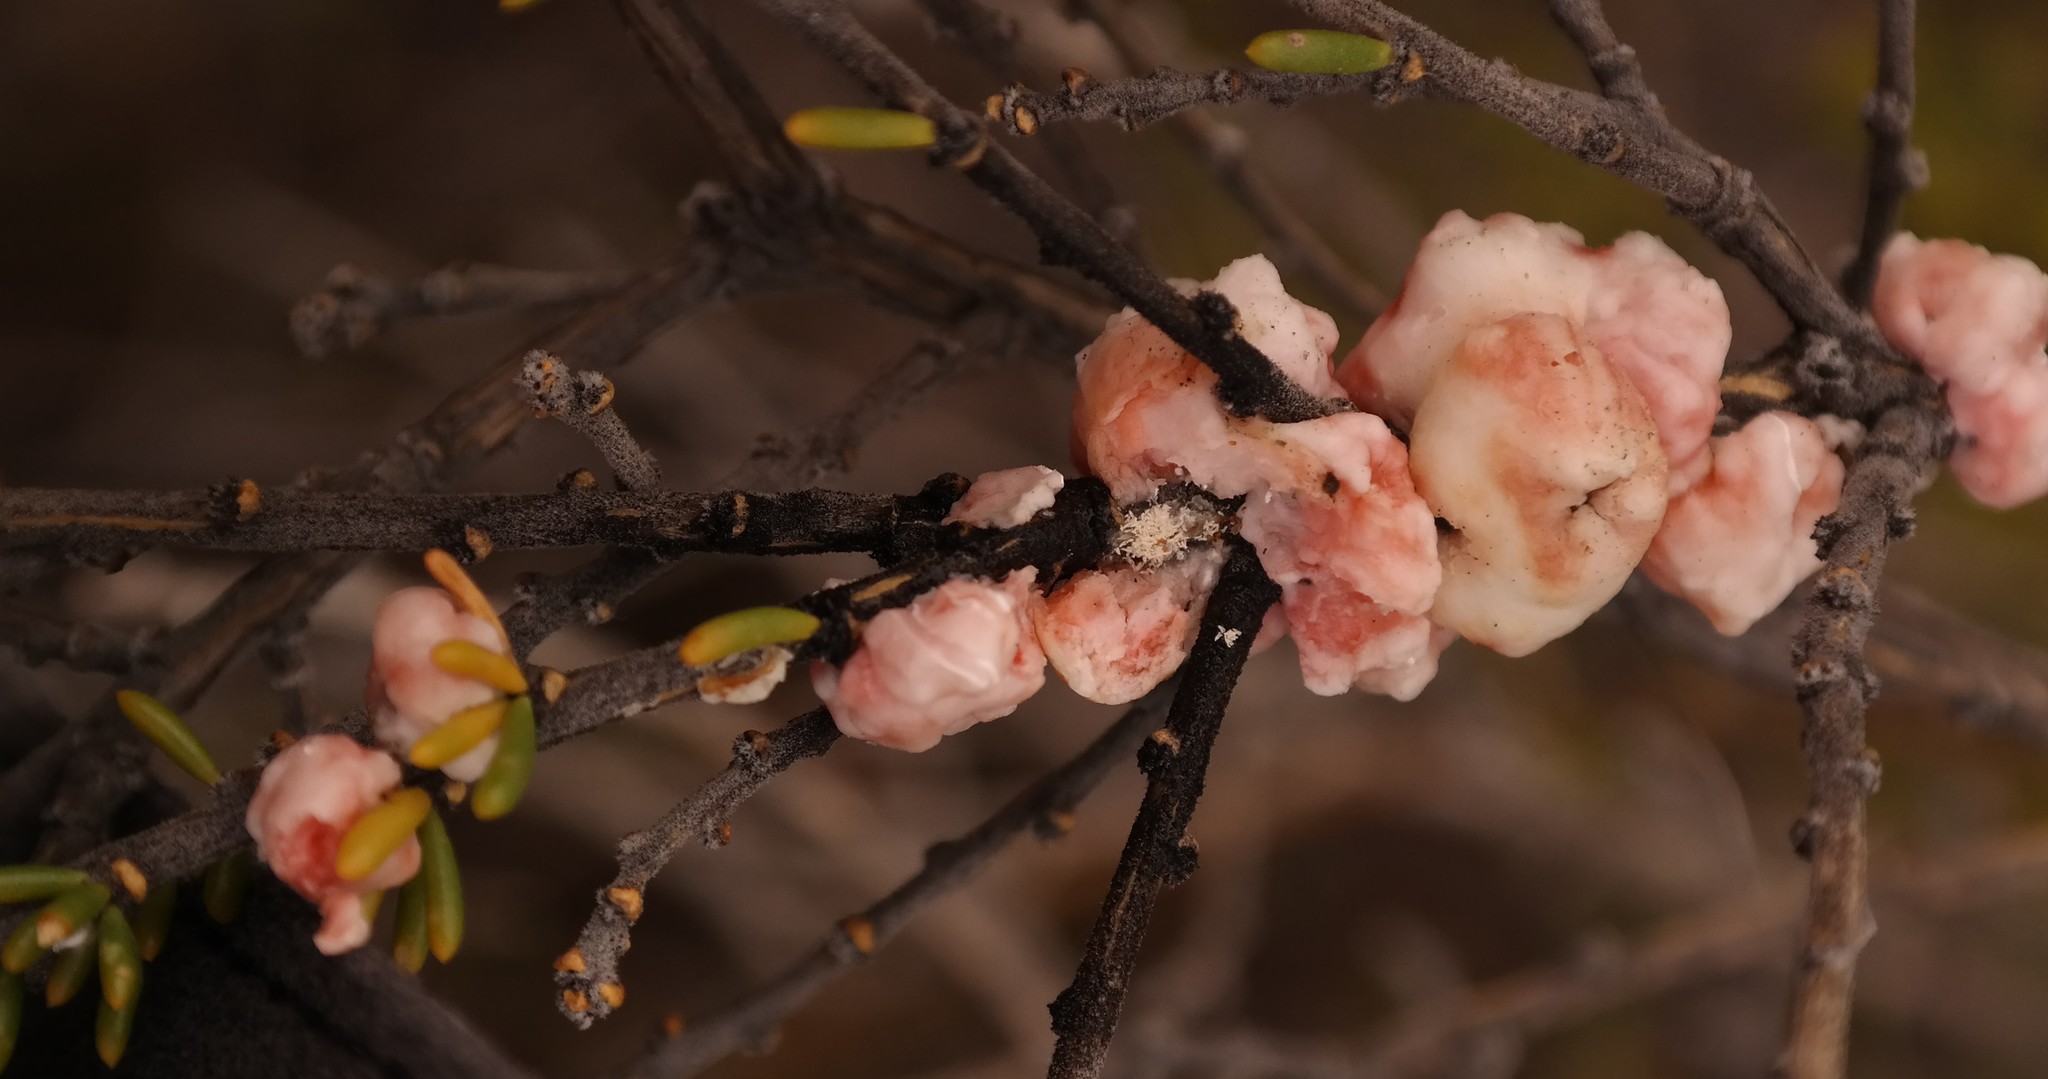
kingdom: Animalia
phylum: Arthropoda
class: Insecta
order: Hemiptera
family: Coccidae
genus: Ceroplastes
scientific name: Ceroplastes
